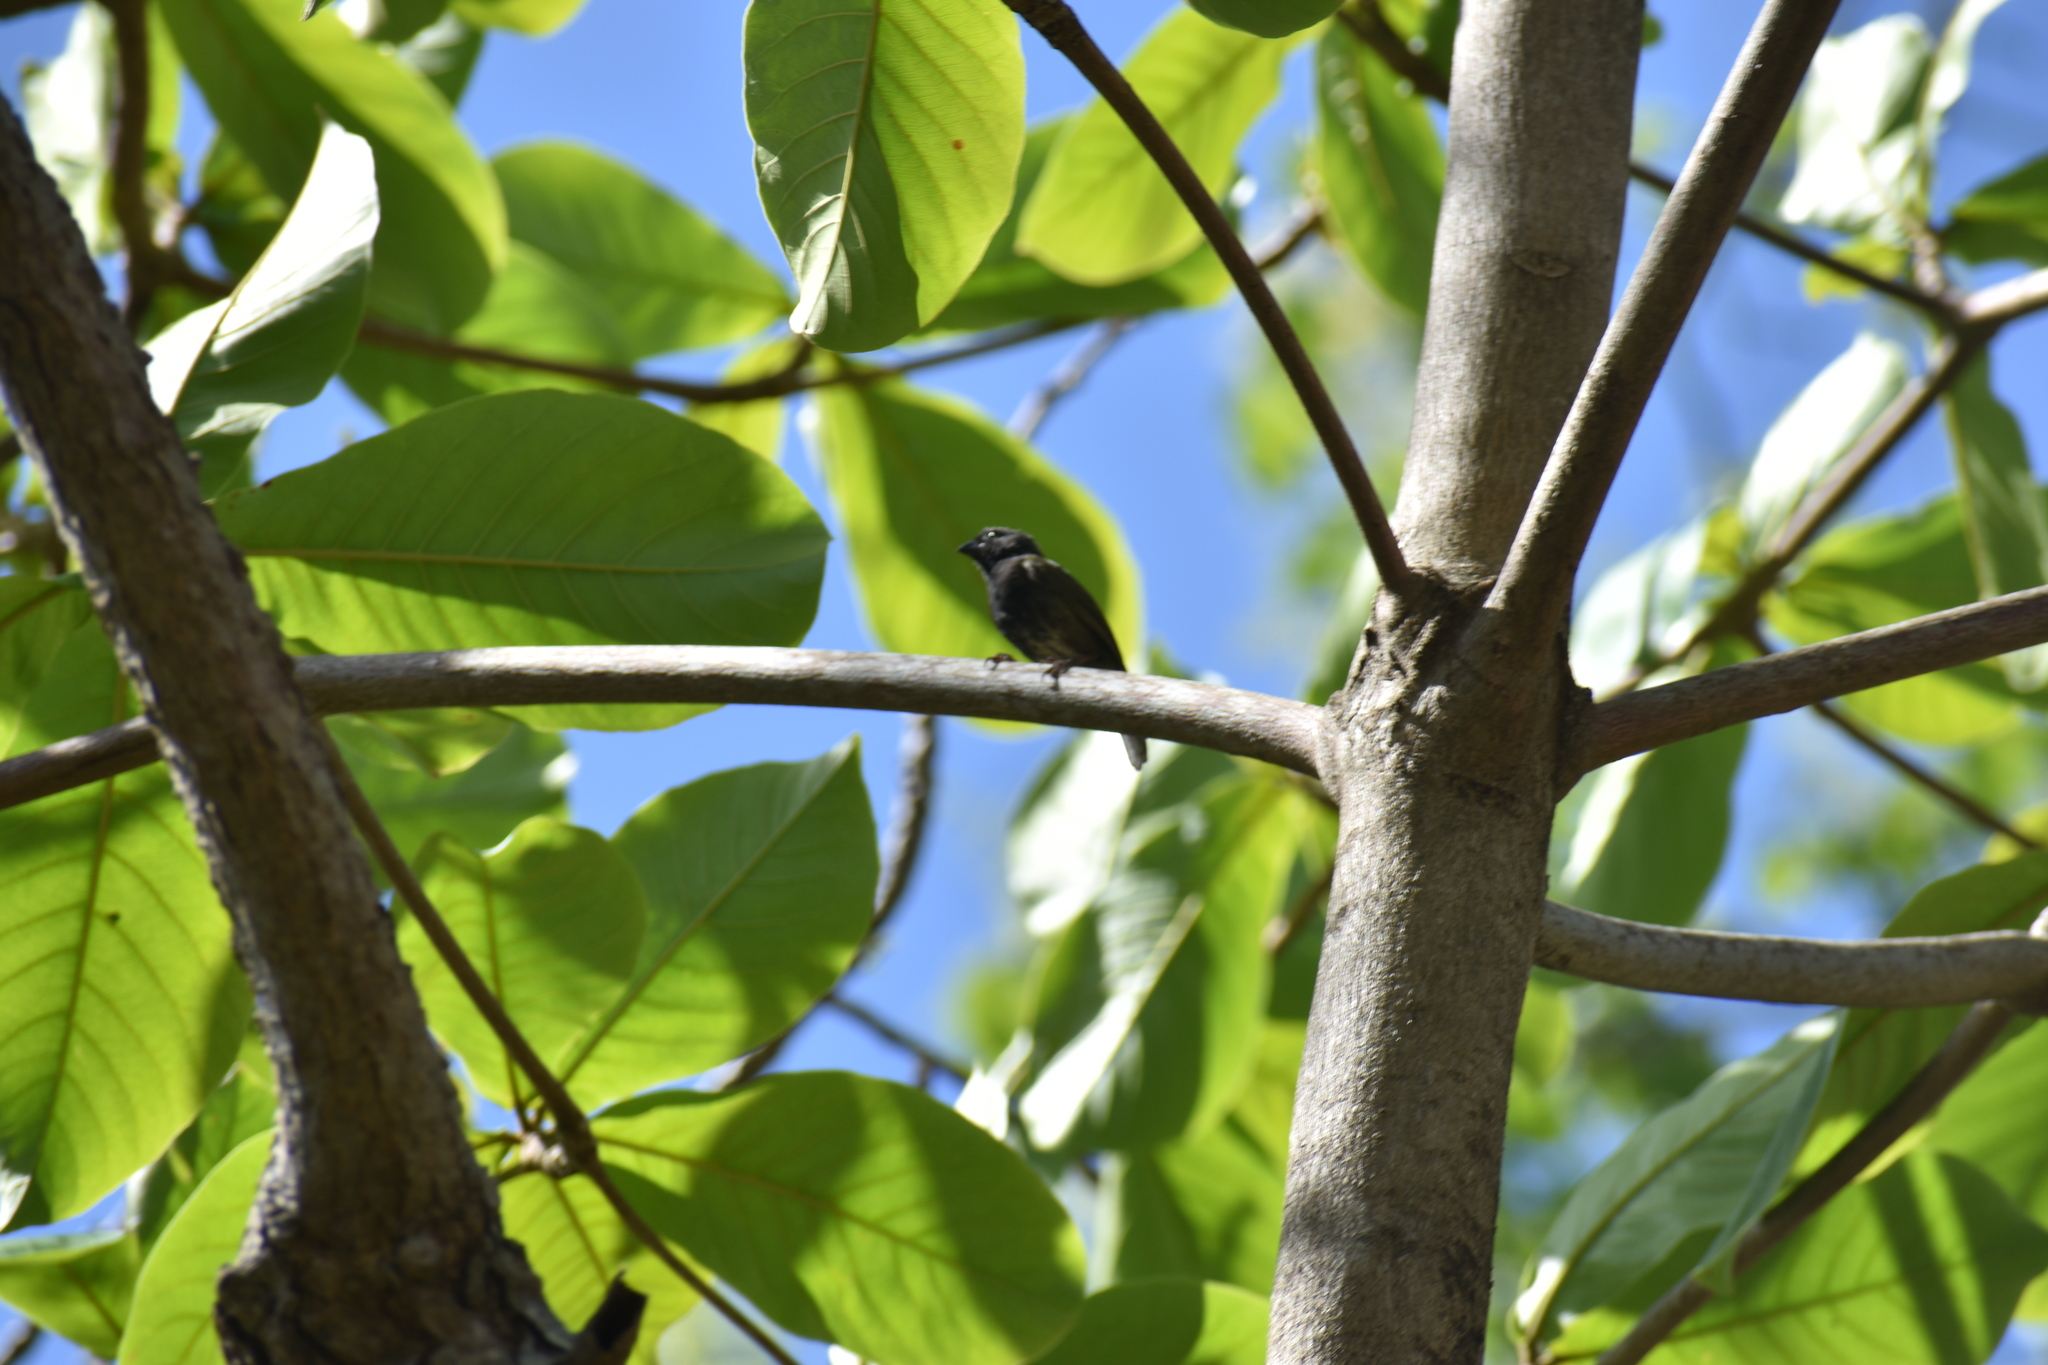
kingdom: Animalia
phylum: Chordata
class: Aves
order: Passeriformes
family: Thraupidae
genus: Melanospiza
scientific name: Melanospiza bicolor
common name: Black-faced grassquit
